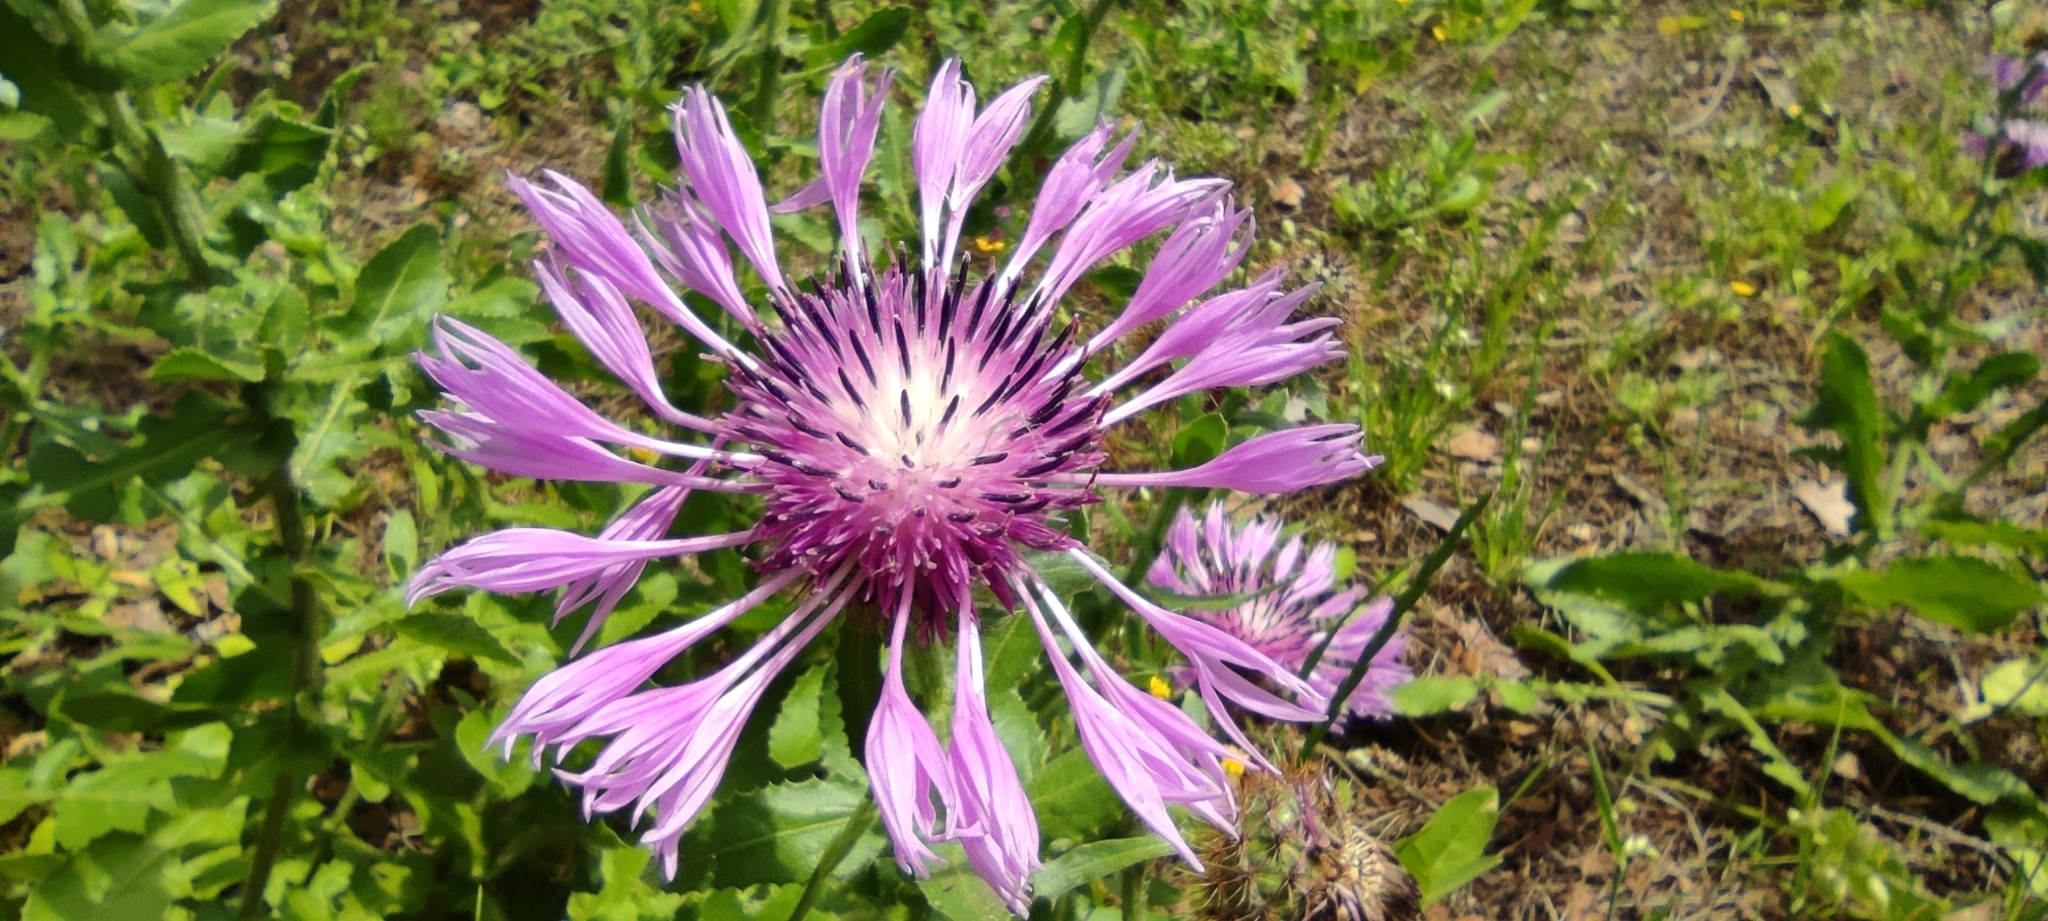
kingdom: Plantae
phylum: Tracheophyta
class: Magnoliopsida
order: Asterales
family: Asteraceae
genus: Centaurea
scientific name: Centaurea polyacantha
